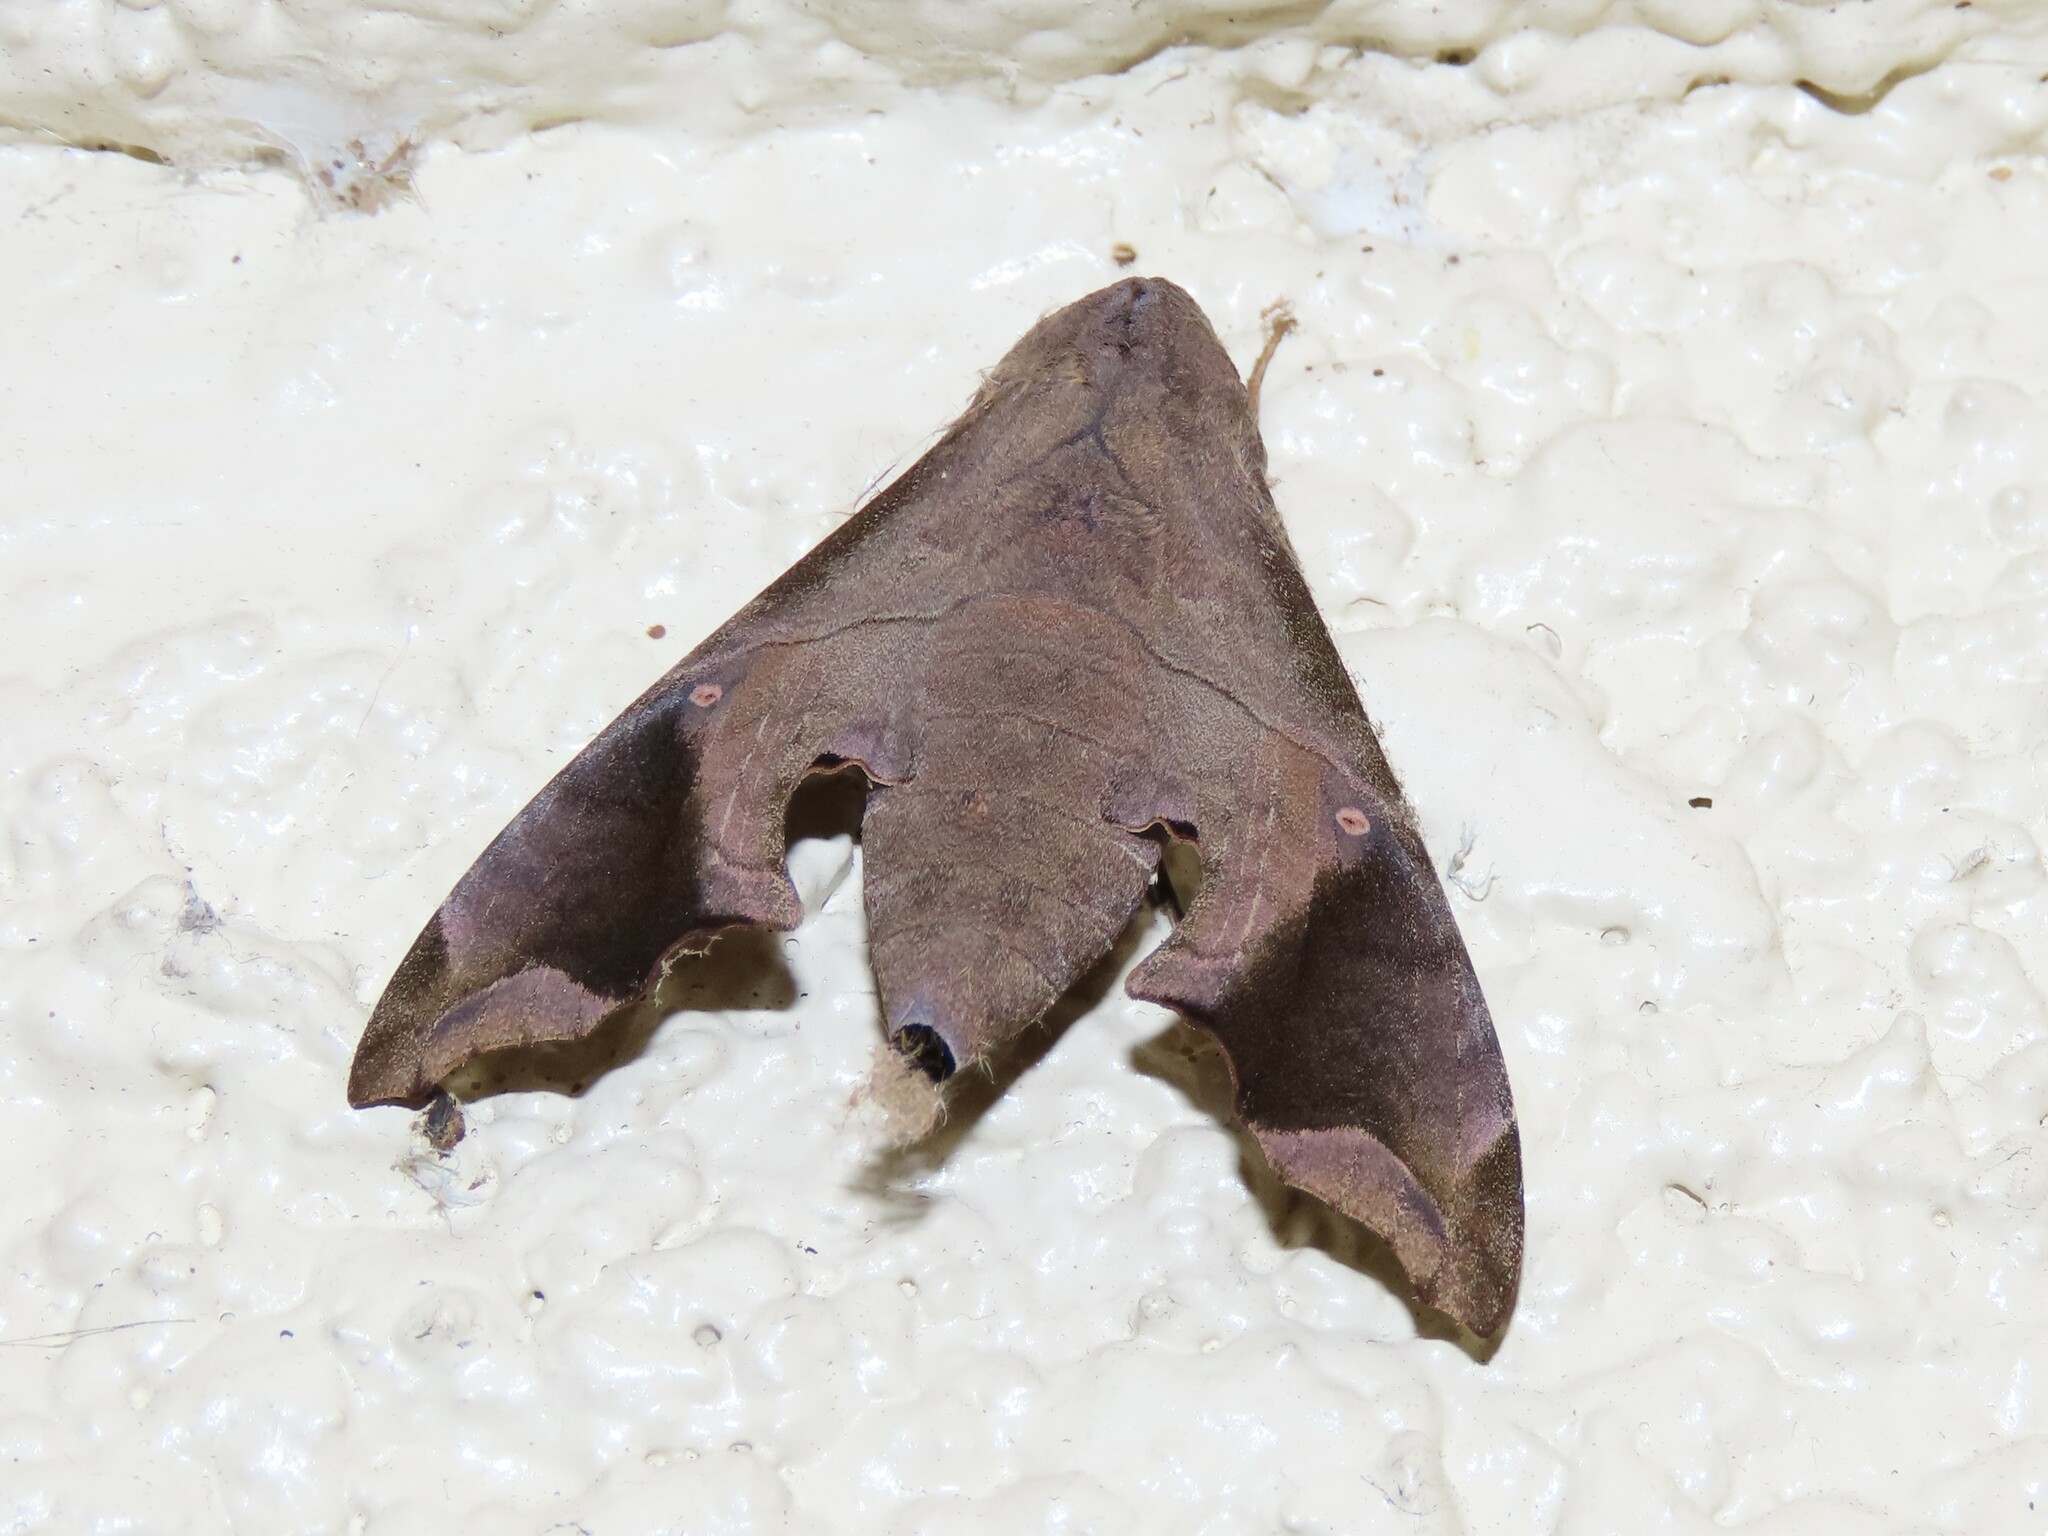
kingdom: Animalia
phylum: Arthropoda
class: Insecta
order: Lepidoptera
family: Sphingidae
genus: Enyo
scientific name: Enyo lugubris
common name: Mournful sphinx
